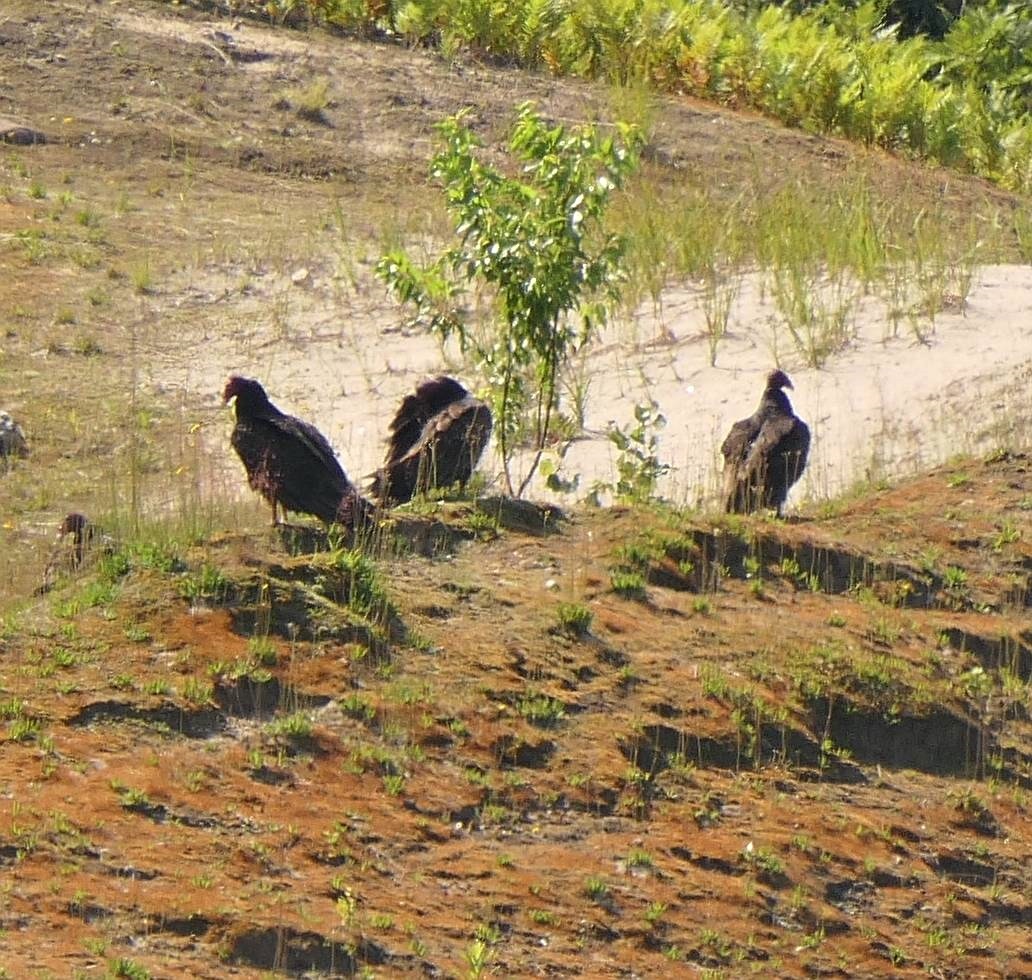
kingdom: Animalia
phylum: Chordata
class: Aves
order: Accipitriformes
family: Cathartidae
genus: Cathartes
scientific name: Cathartes aura
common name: Turkey vulture
